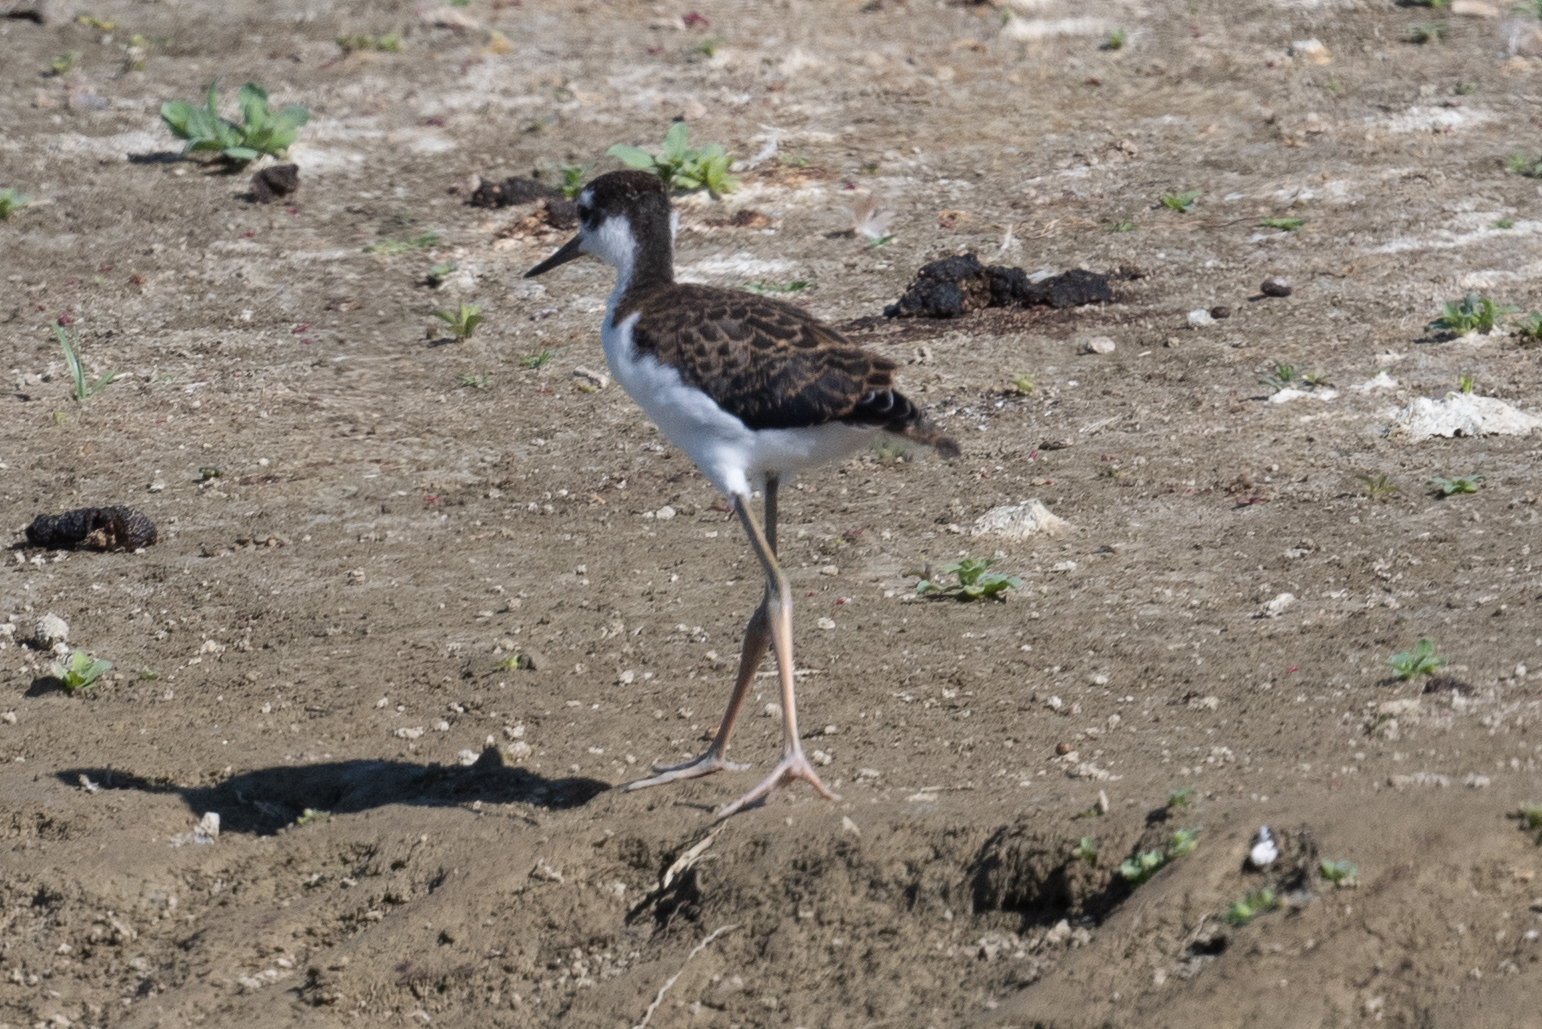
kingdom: Animalia
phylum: Chordata
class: Aves
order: Charadriiformes
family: Recurvirostridae
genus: Himantopus
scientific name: Himantopus mexicanus
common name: Black-necked stilt
